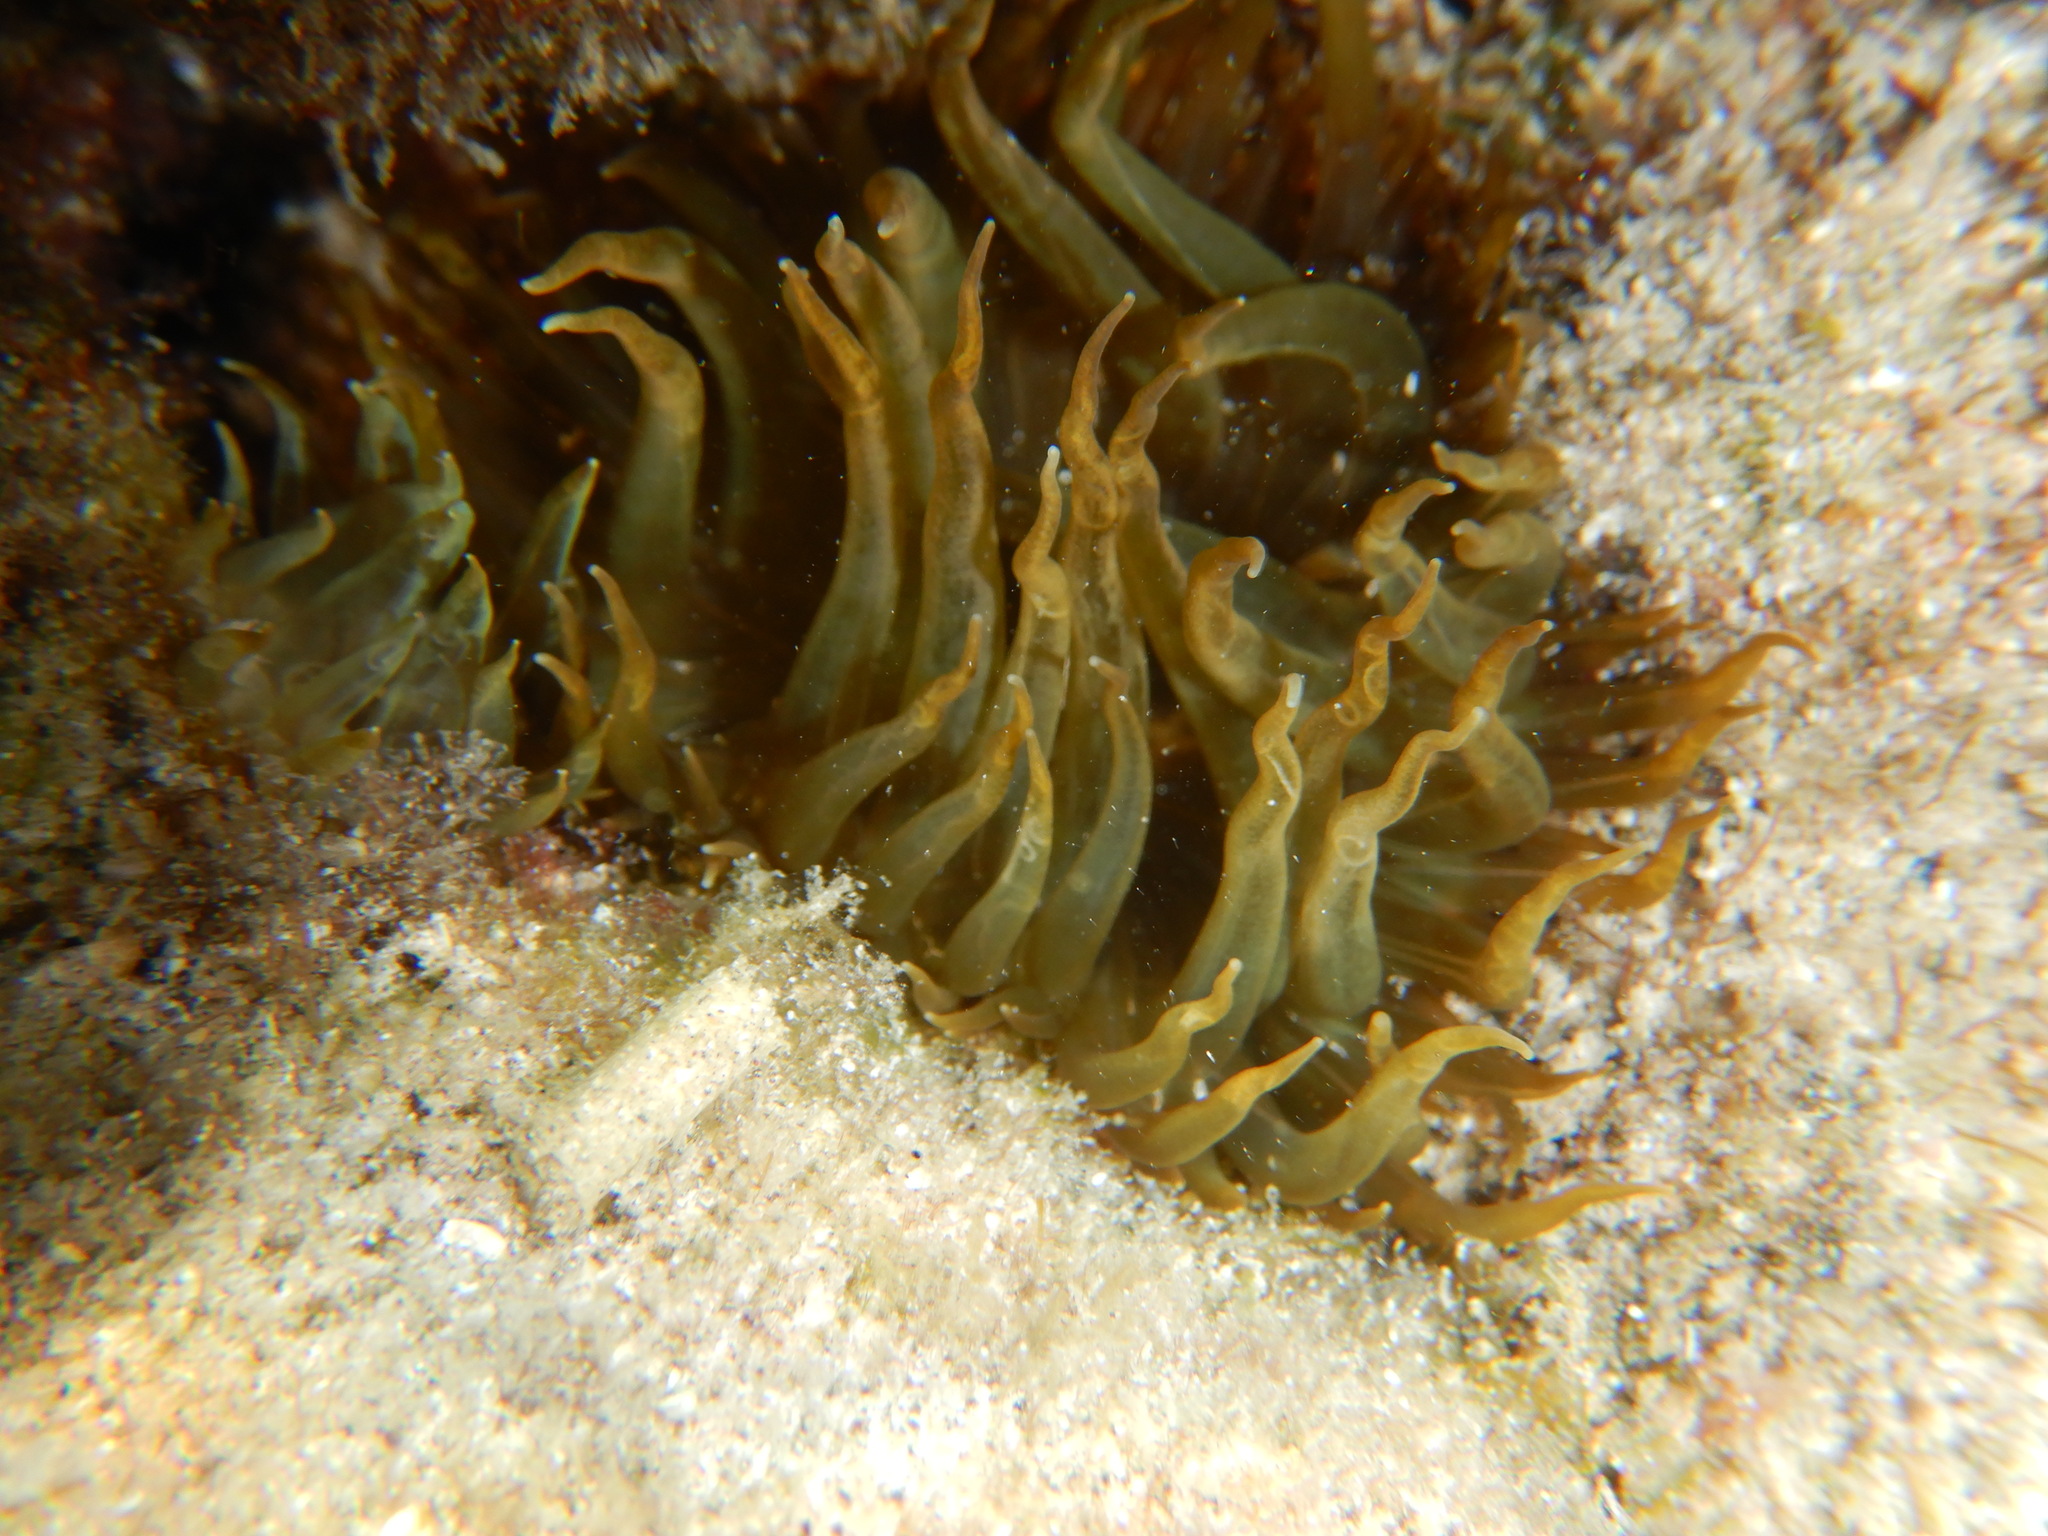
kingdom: Animalia
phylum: Cnidaria
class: Anthozoa
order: Actiniaria
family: Aiptasiidae
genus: Aiptasia
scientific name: Aiptasia couchii
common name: Trumpet anemone
